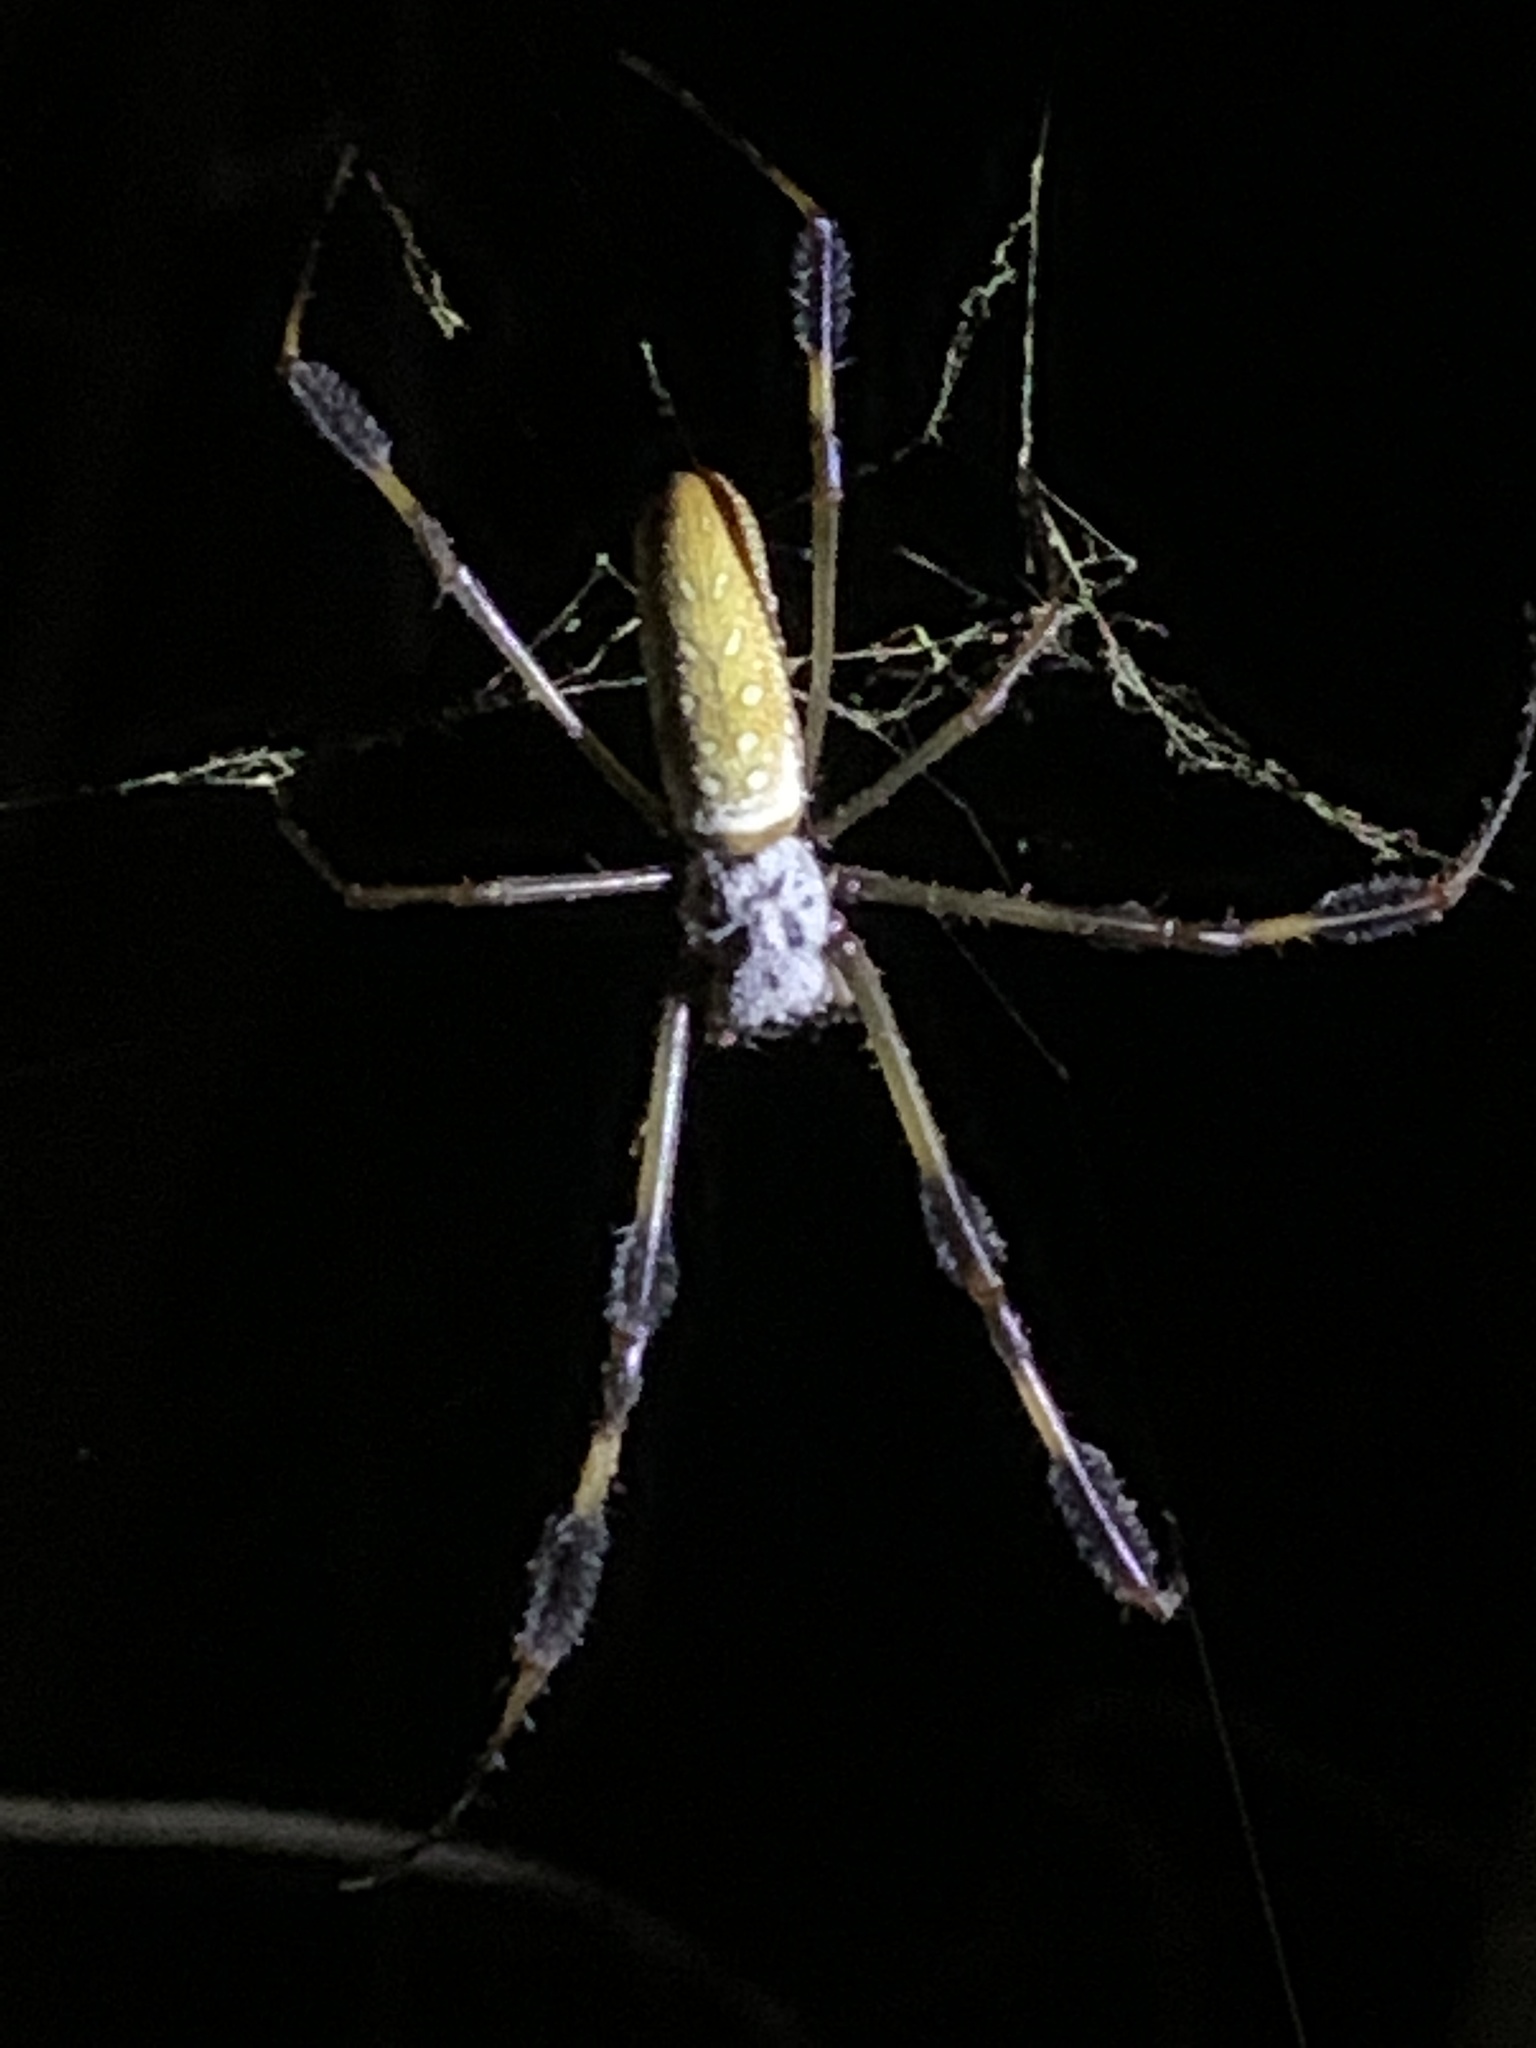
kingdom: Animalia
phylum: Arthropoda
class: Arachnida
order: Araneae
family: Araneidae
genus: Trichonephila
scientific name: Trichonephila clavipes
